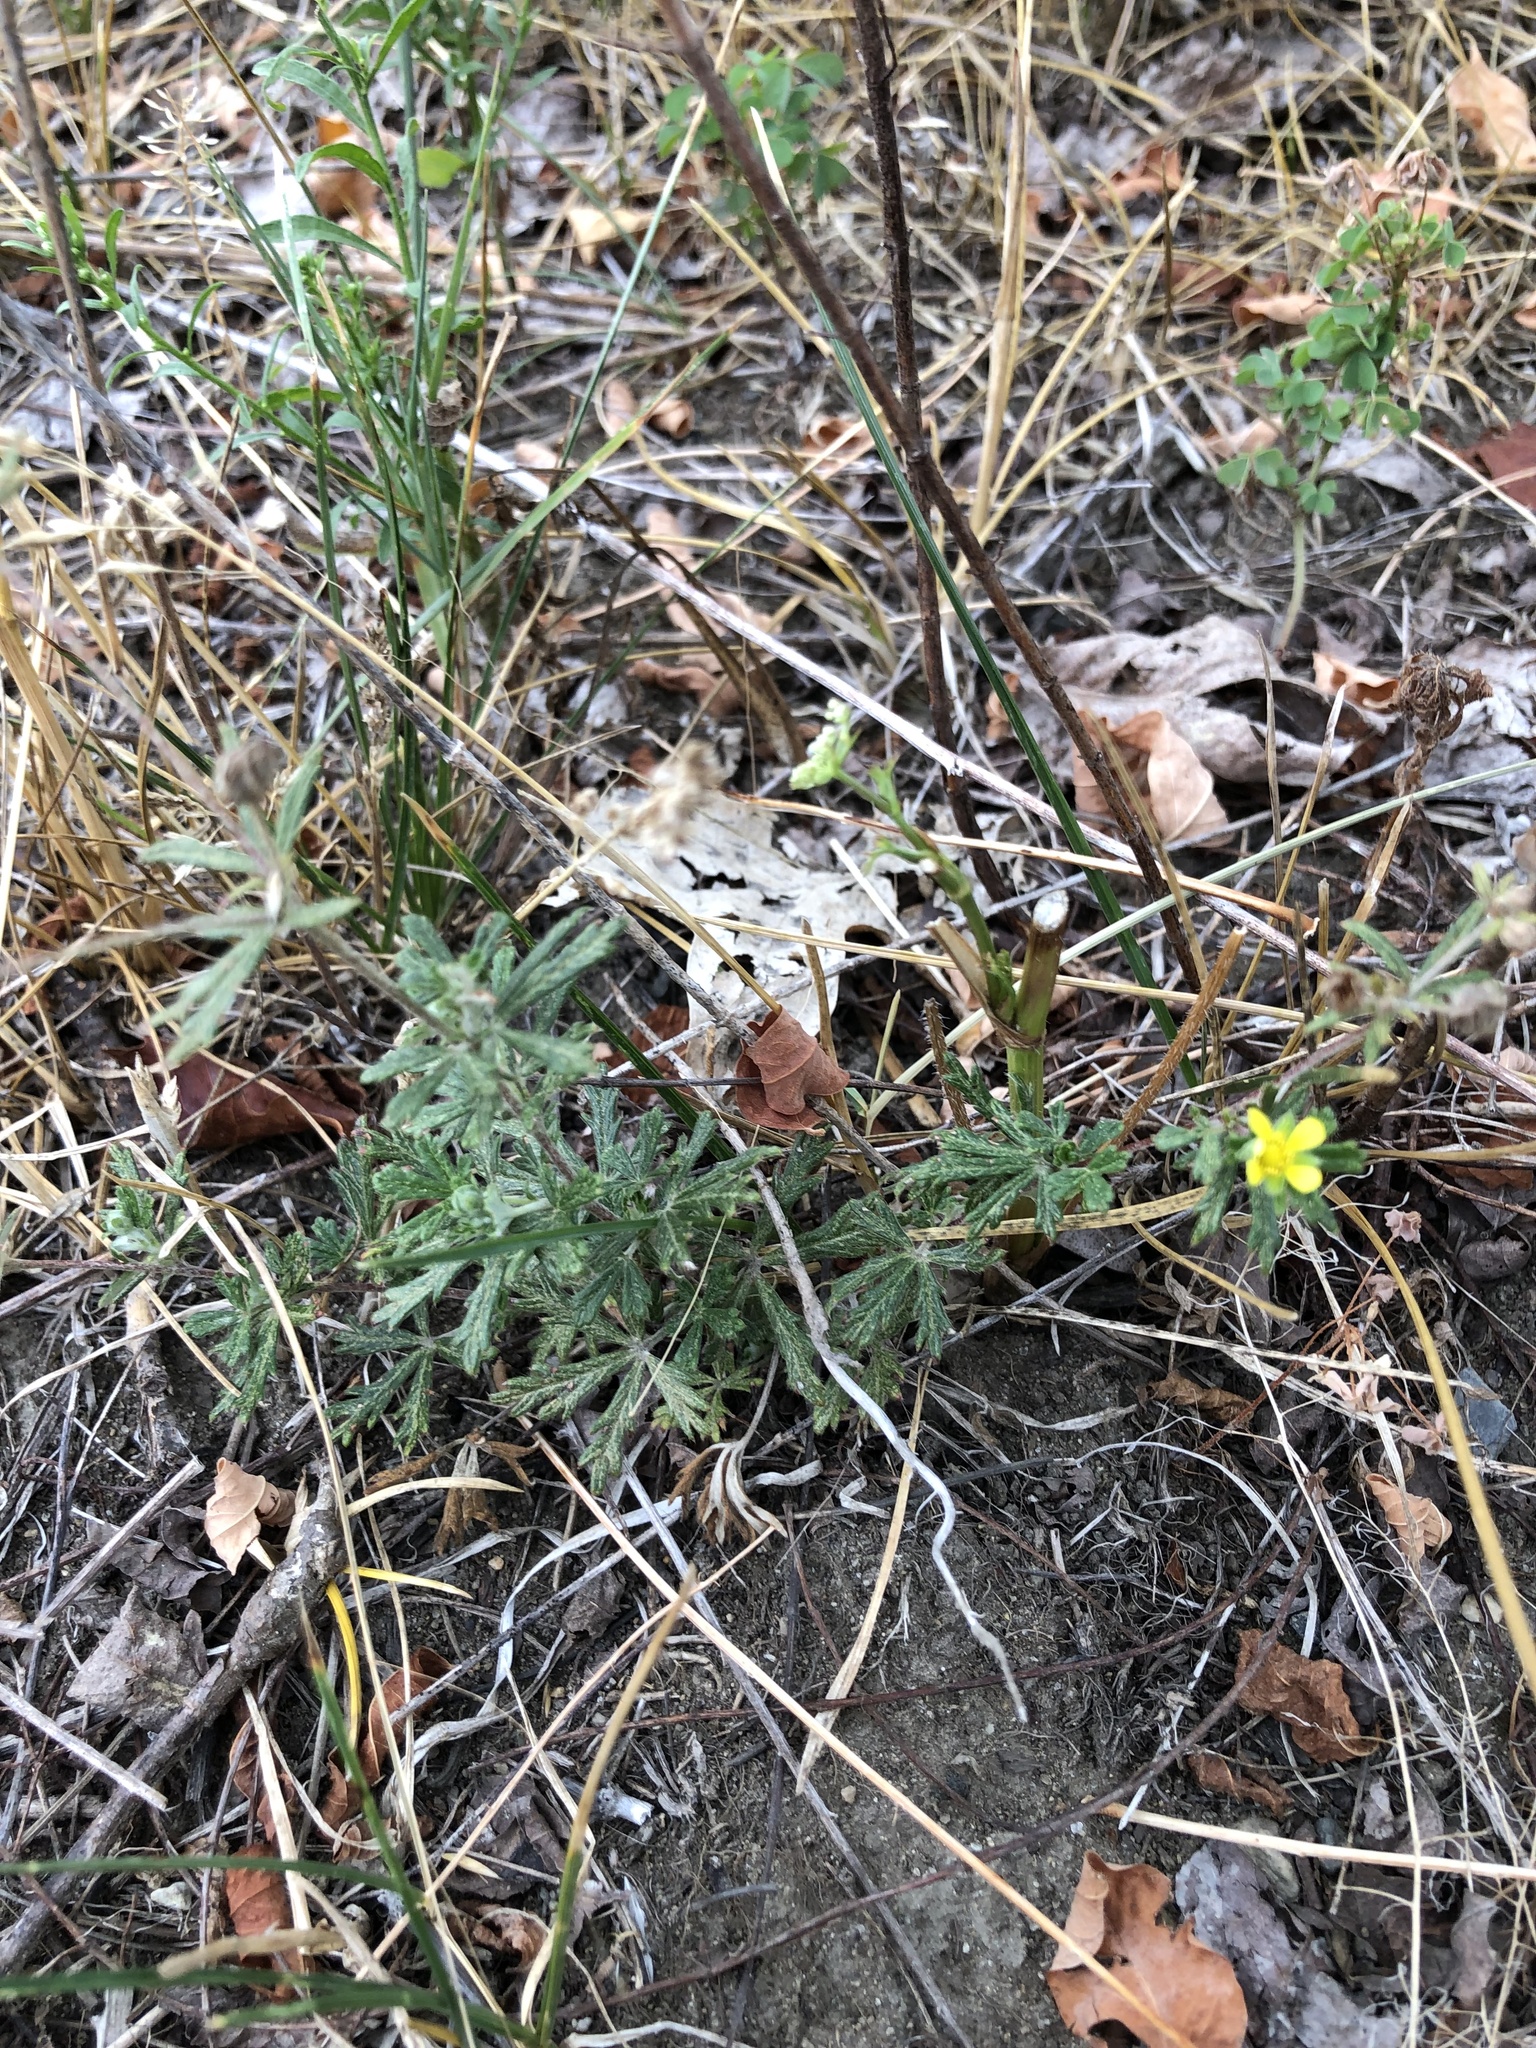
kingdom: Plantae
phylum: Tracheophyta
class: Magnoliopsida
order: Rosales
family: Rosaceae
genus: Potentilla
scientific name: Potentilla argentea
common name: Hoary cinquefoil
